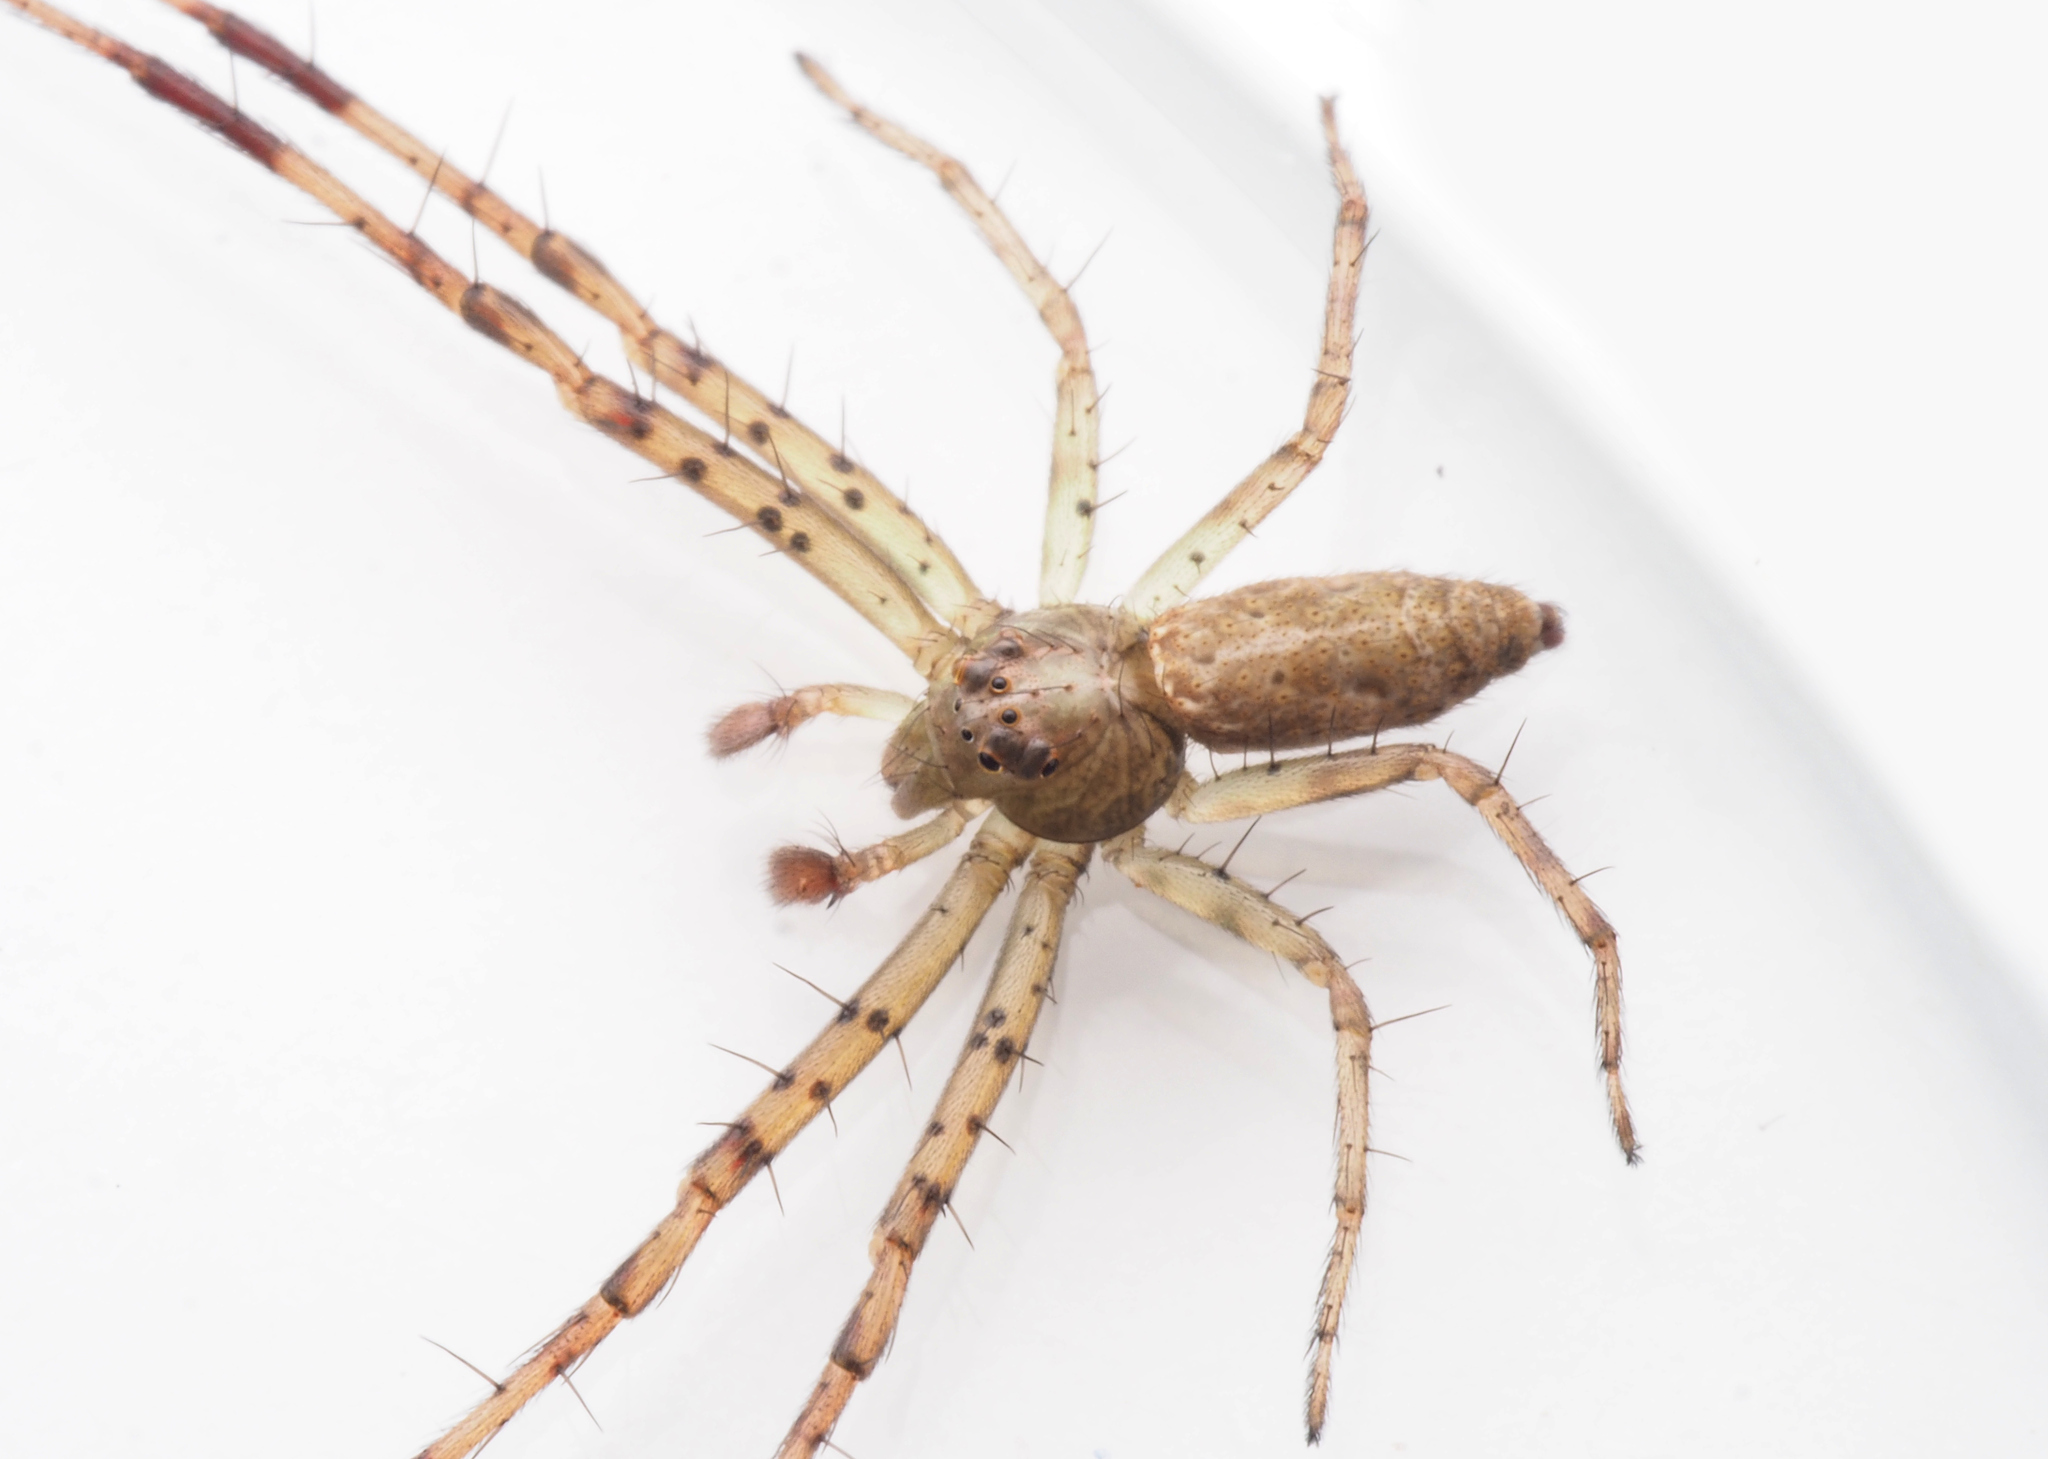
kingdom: Animalia
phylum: Arthropoda
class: Arachnida
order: Araneae
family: Thomisidae
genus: Tmarus
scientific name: Tmarus
